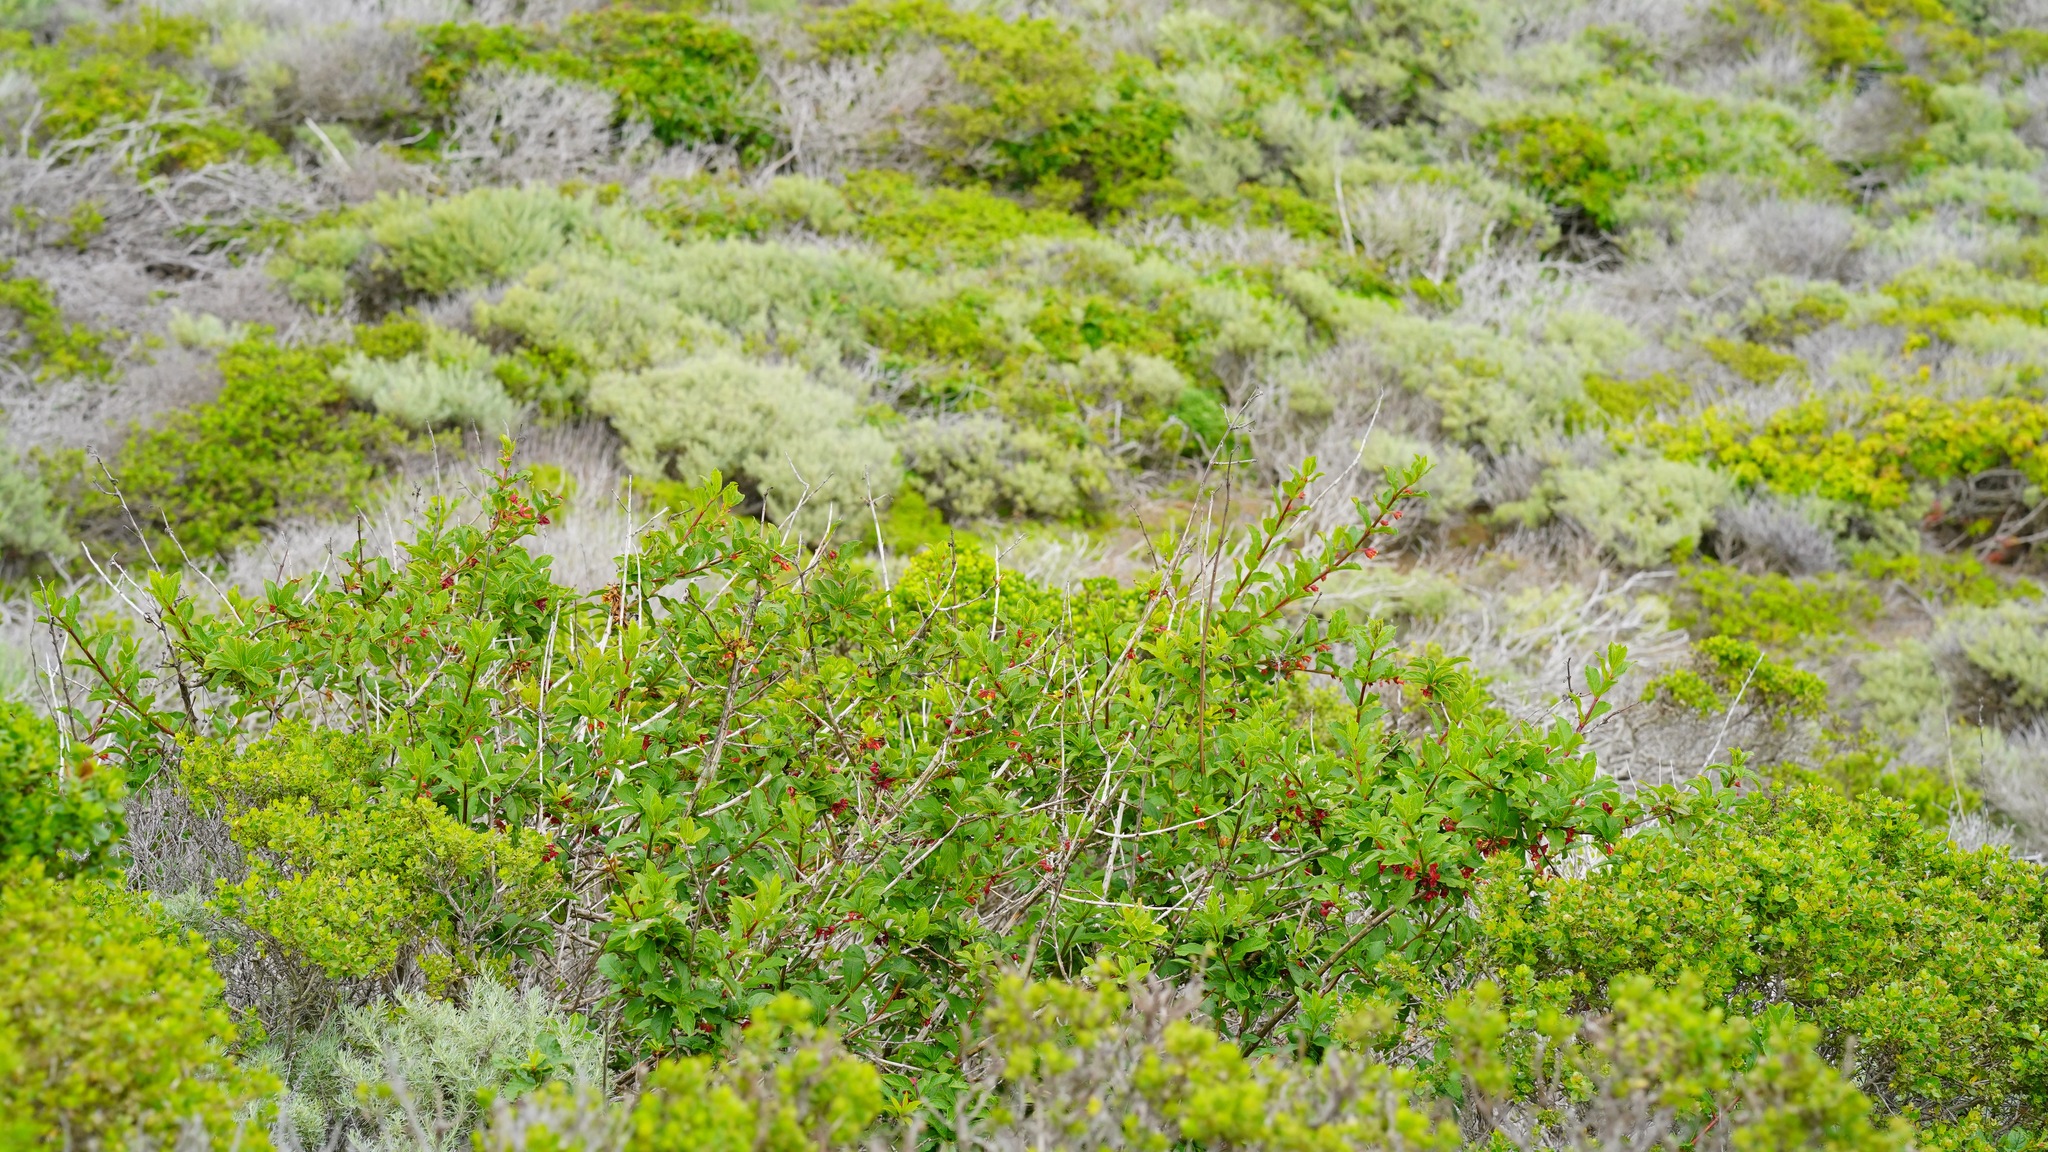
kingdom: Plantae
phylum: Tracheophyta
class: Magnoliopsida
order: Dipsacales
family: Caprifoliaceae
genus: Lonicera
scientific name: Lonicera involucrata
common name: Californian honeysuckle
